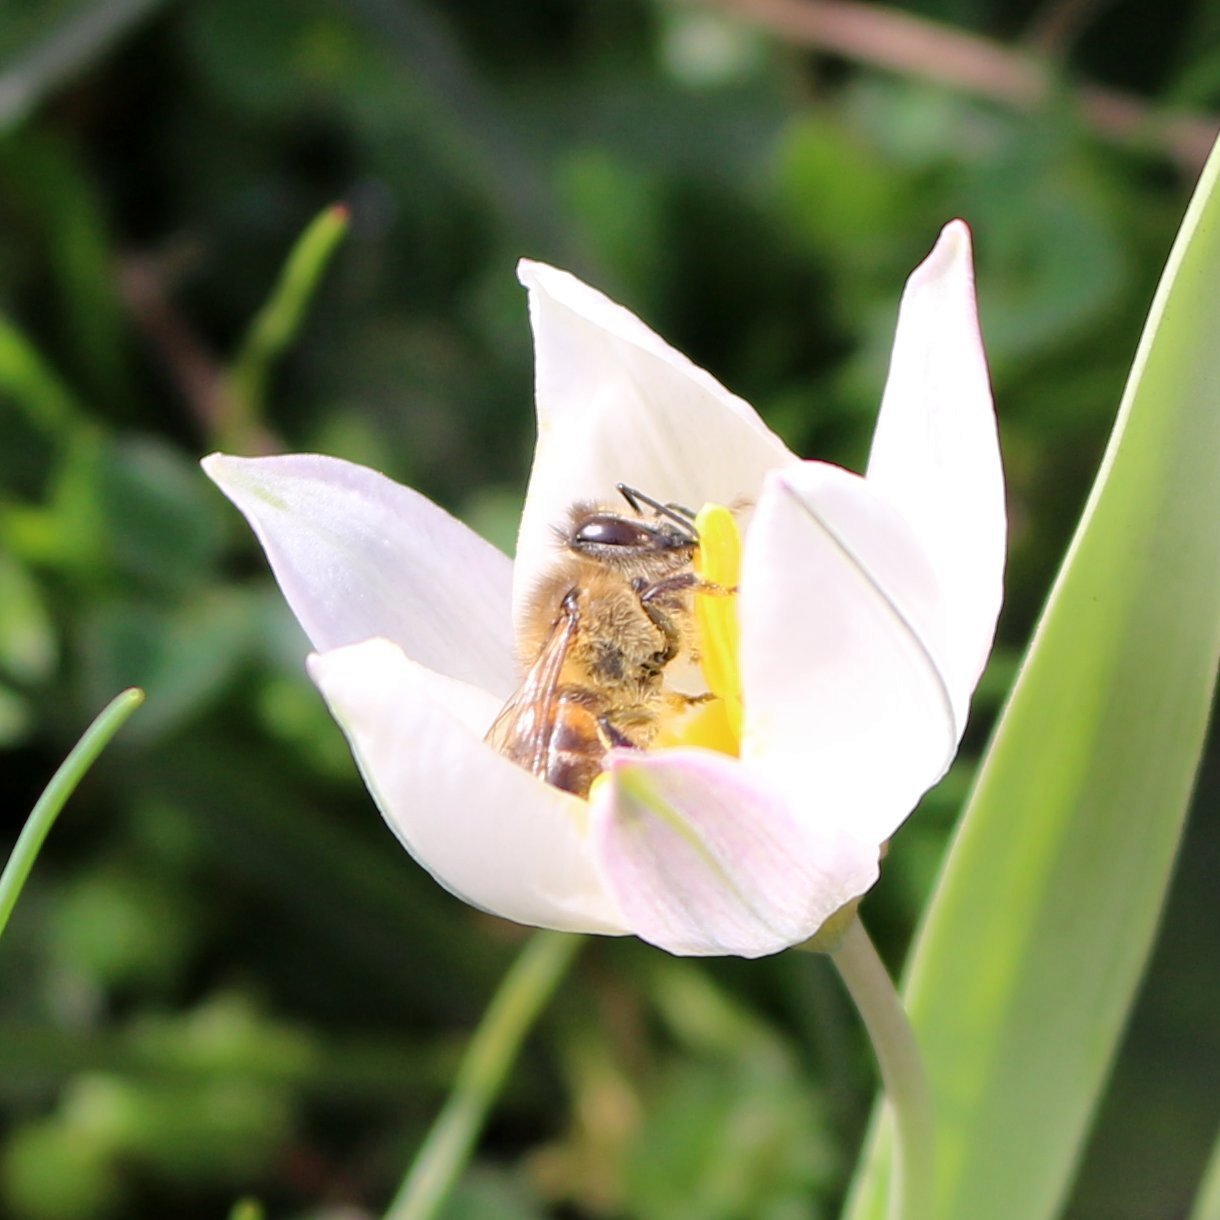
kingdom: Animalia
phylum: Arthropoda
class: Insecta
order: Hymenoptera
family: Apidae
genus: Apis
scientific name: Apis mellifera
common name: Honey bee
